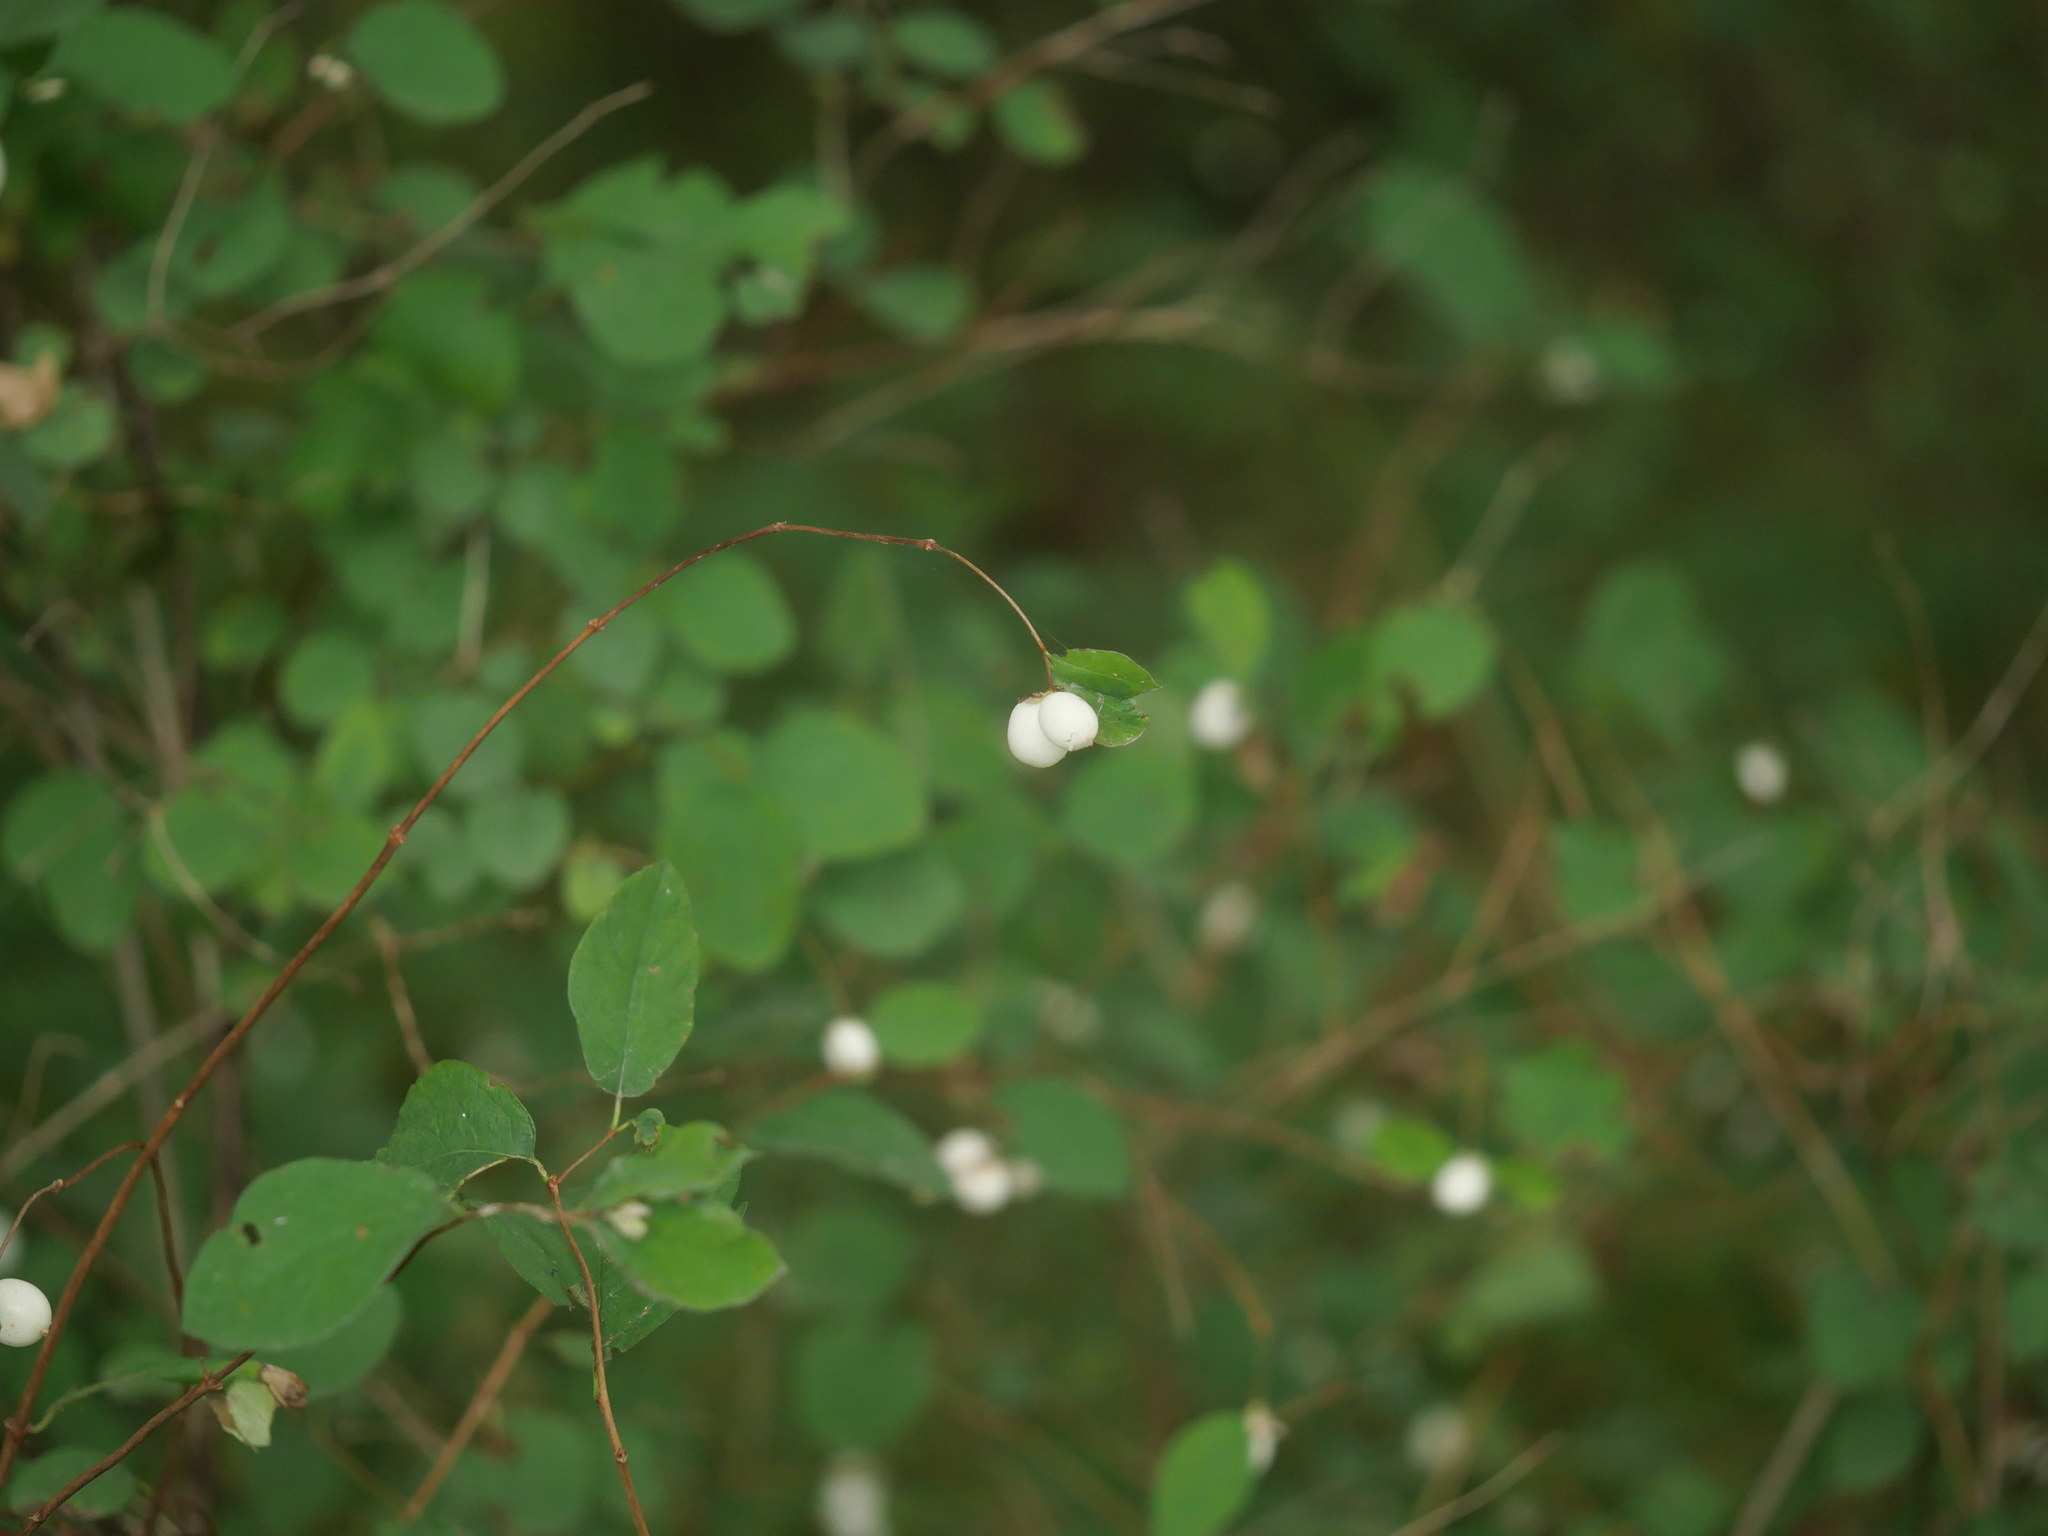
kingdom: Plantae
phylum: Tracheophyta
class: Magnoliopsida
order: Dipsacales
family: Caprifoliaceae
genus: Symphoricarpos
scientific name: Symphoricarpos albus
